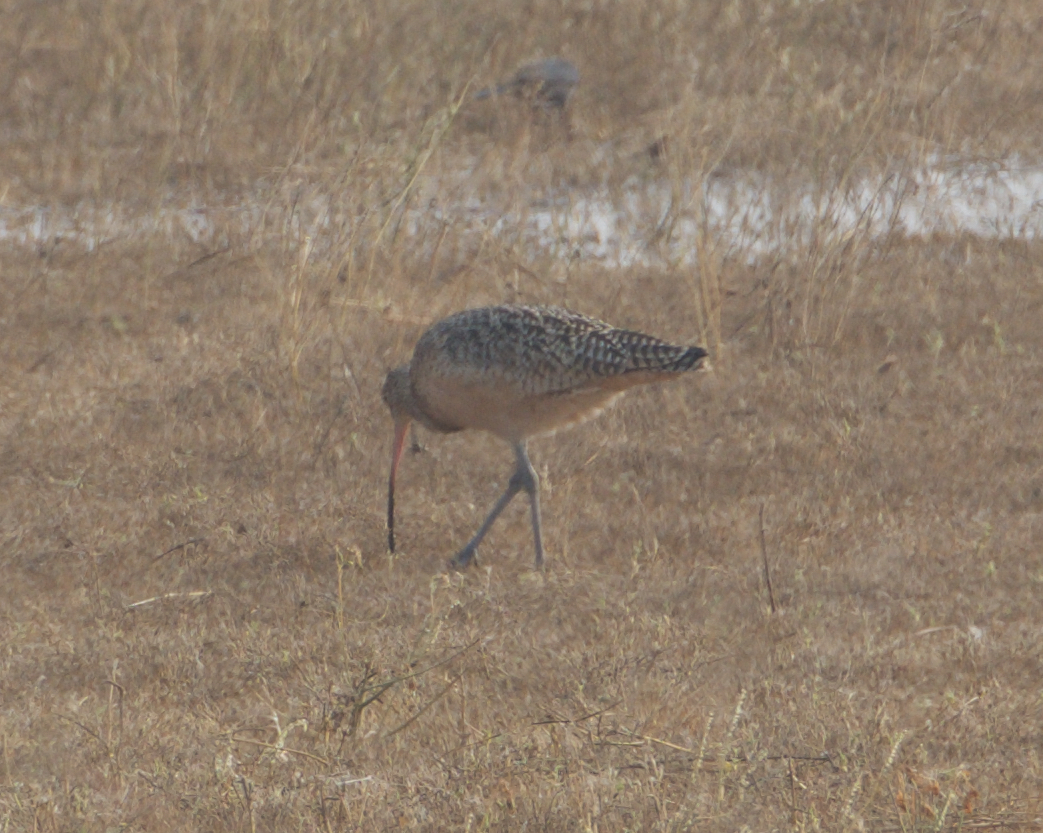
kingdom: Animalia
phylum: Chordata
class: Aves
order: Charadriiformes
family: Scolopacidae
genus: Numenius
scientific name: Numenius americanus
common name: Long-billed curlew
